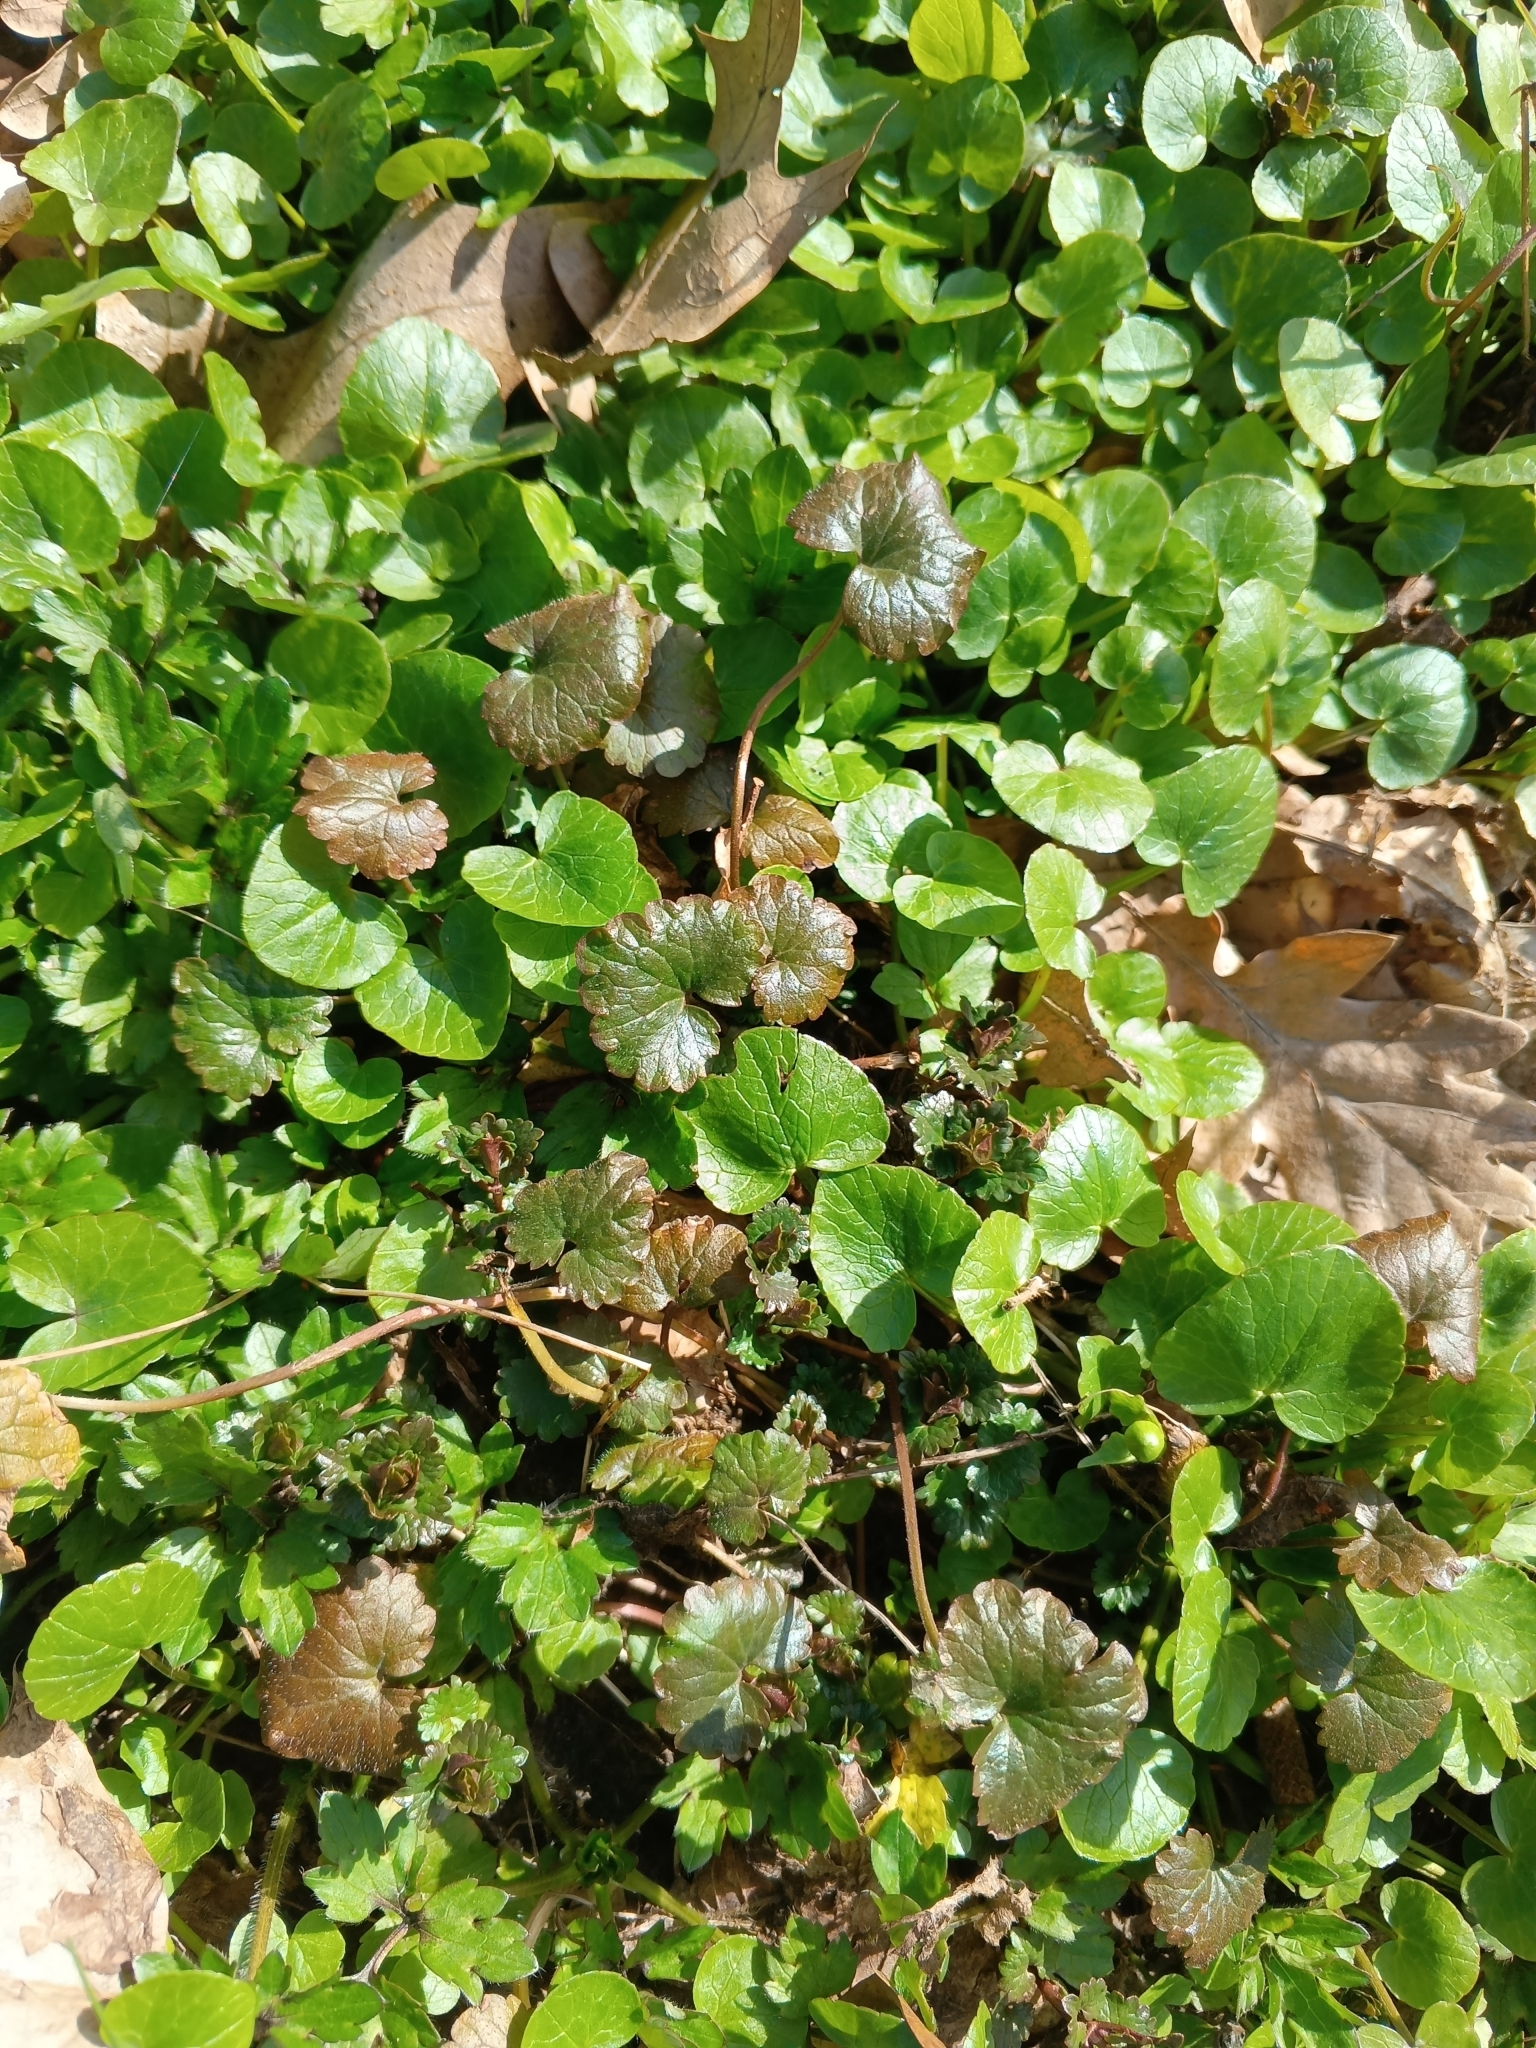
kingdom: Plantae
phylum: Tracheophyta
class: Magnoliopsida
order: Lamiales
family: Lamiaceae
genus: Glechoma
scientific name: Glechoma hederacea
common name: Ground ivy
